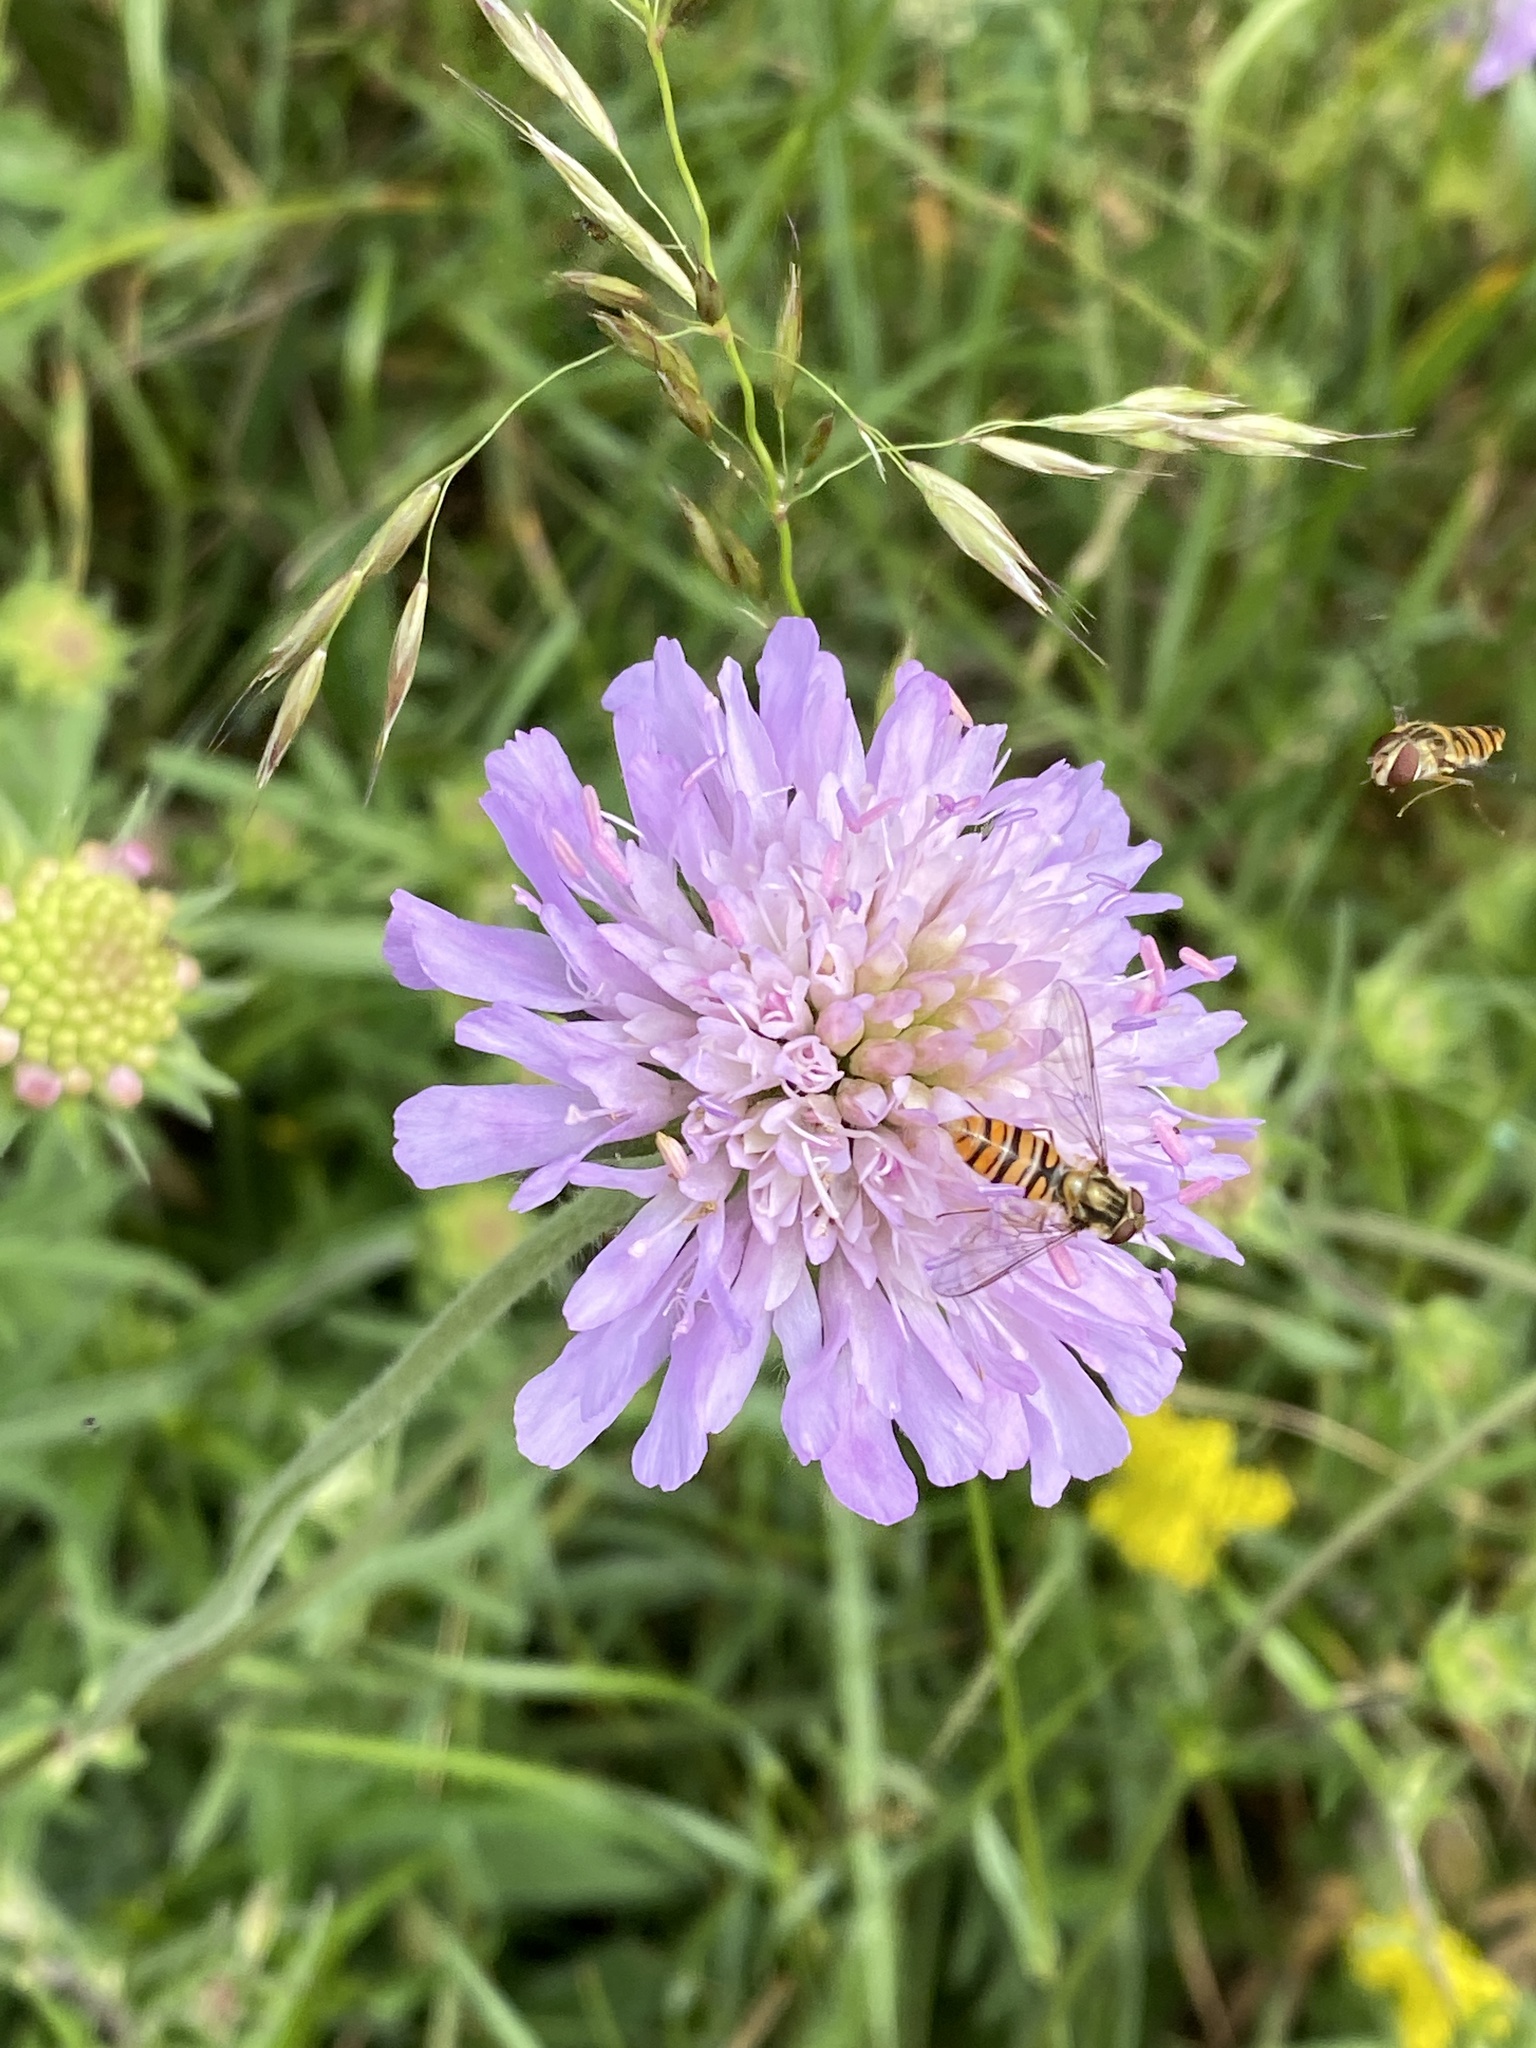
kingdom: Plantae
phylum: Tracheophyta
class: Magnoliopsida
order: Dipsacales
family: Caprifoliaceae
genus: Knautia
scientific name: Knautia arvensis
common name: Field scabiosa
